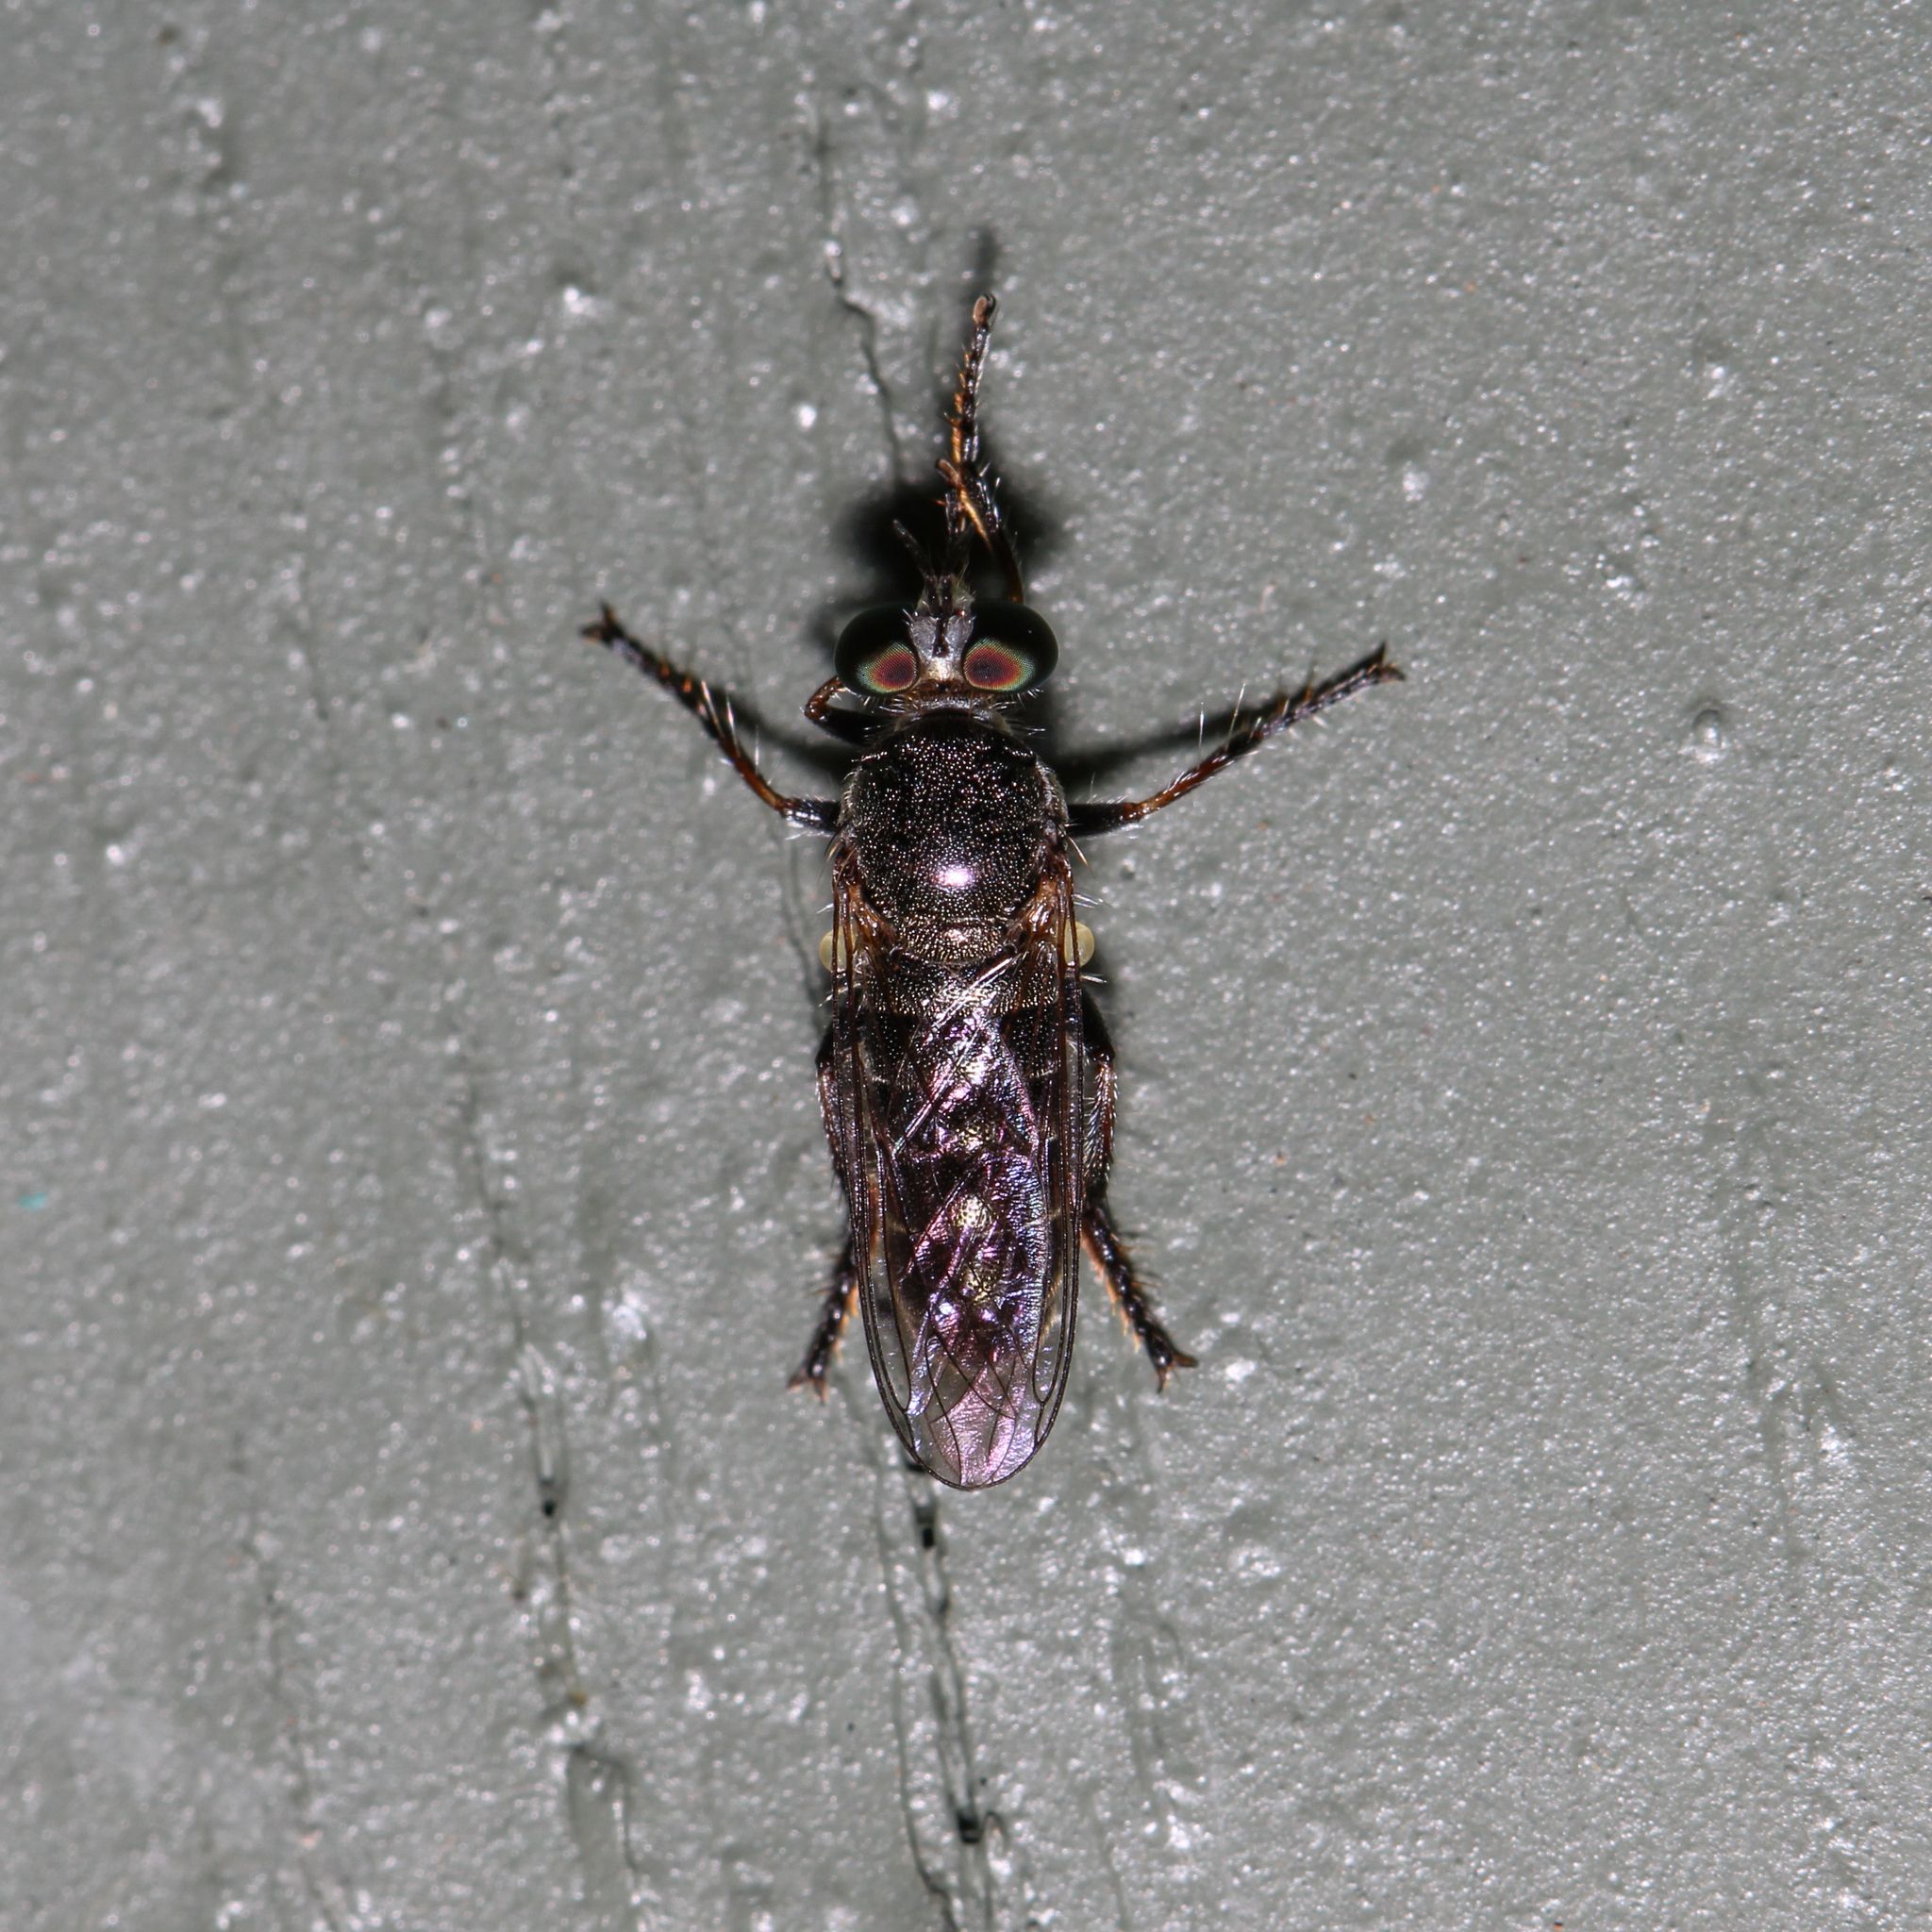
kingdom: Animalia
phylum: Arthropoda
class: Insecta
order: Diptera
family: Asilidae
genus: Atomosia
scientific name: Atomosia puella
